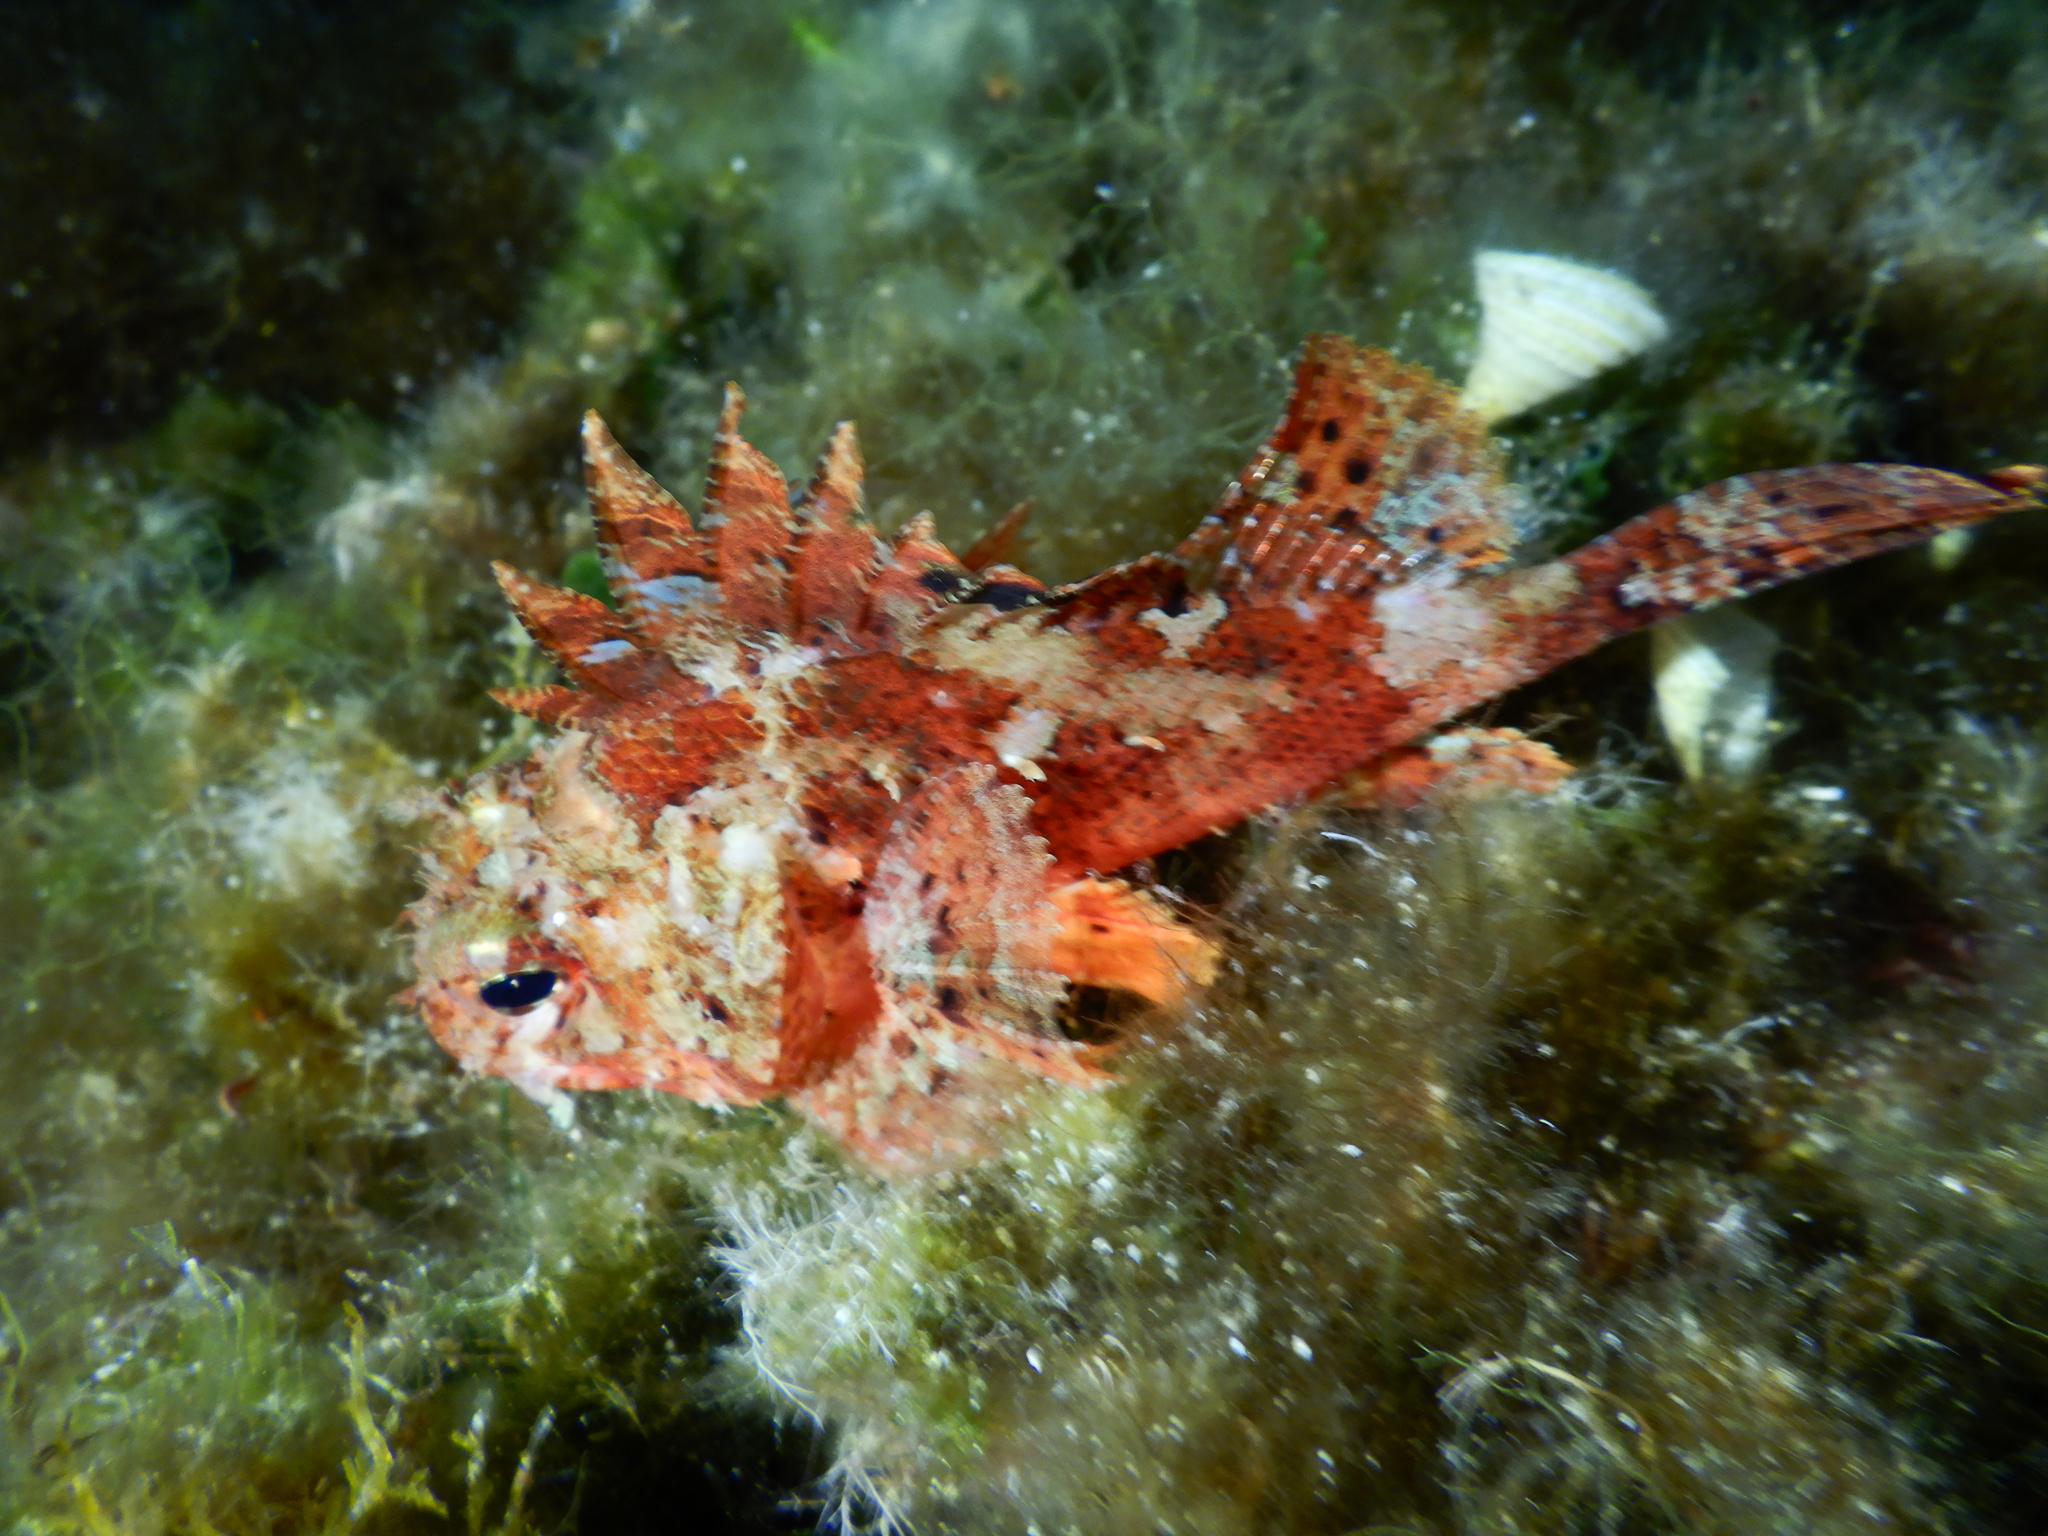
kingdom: Animalia
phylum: Chordata
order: Scorpaeniformes
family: Scorpaenidae
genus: Scorpaena
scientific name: Scorpaena notata
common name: Small red scorpionfish
